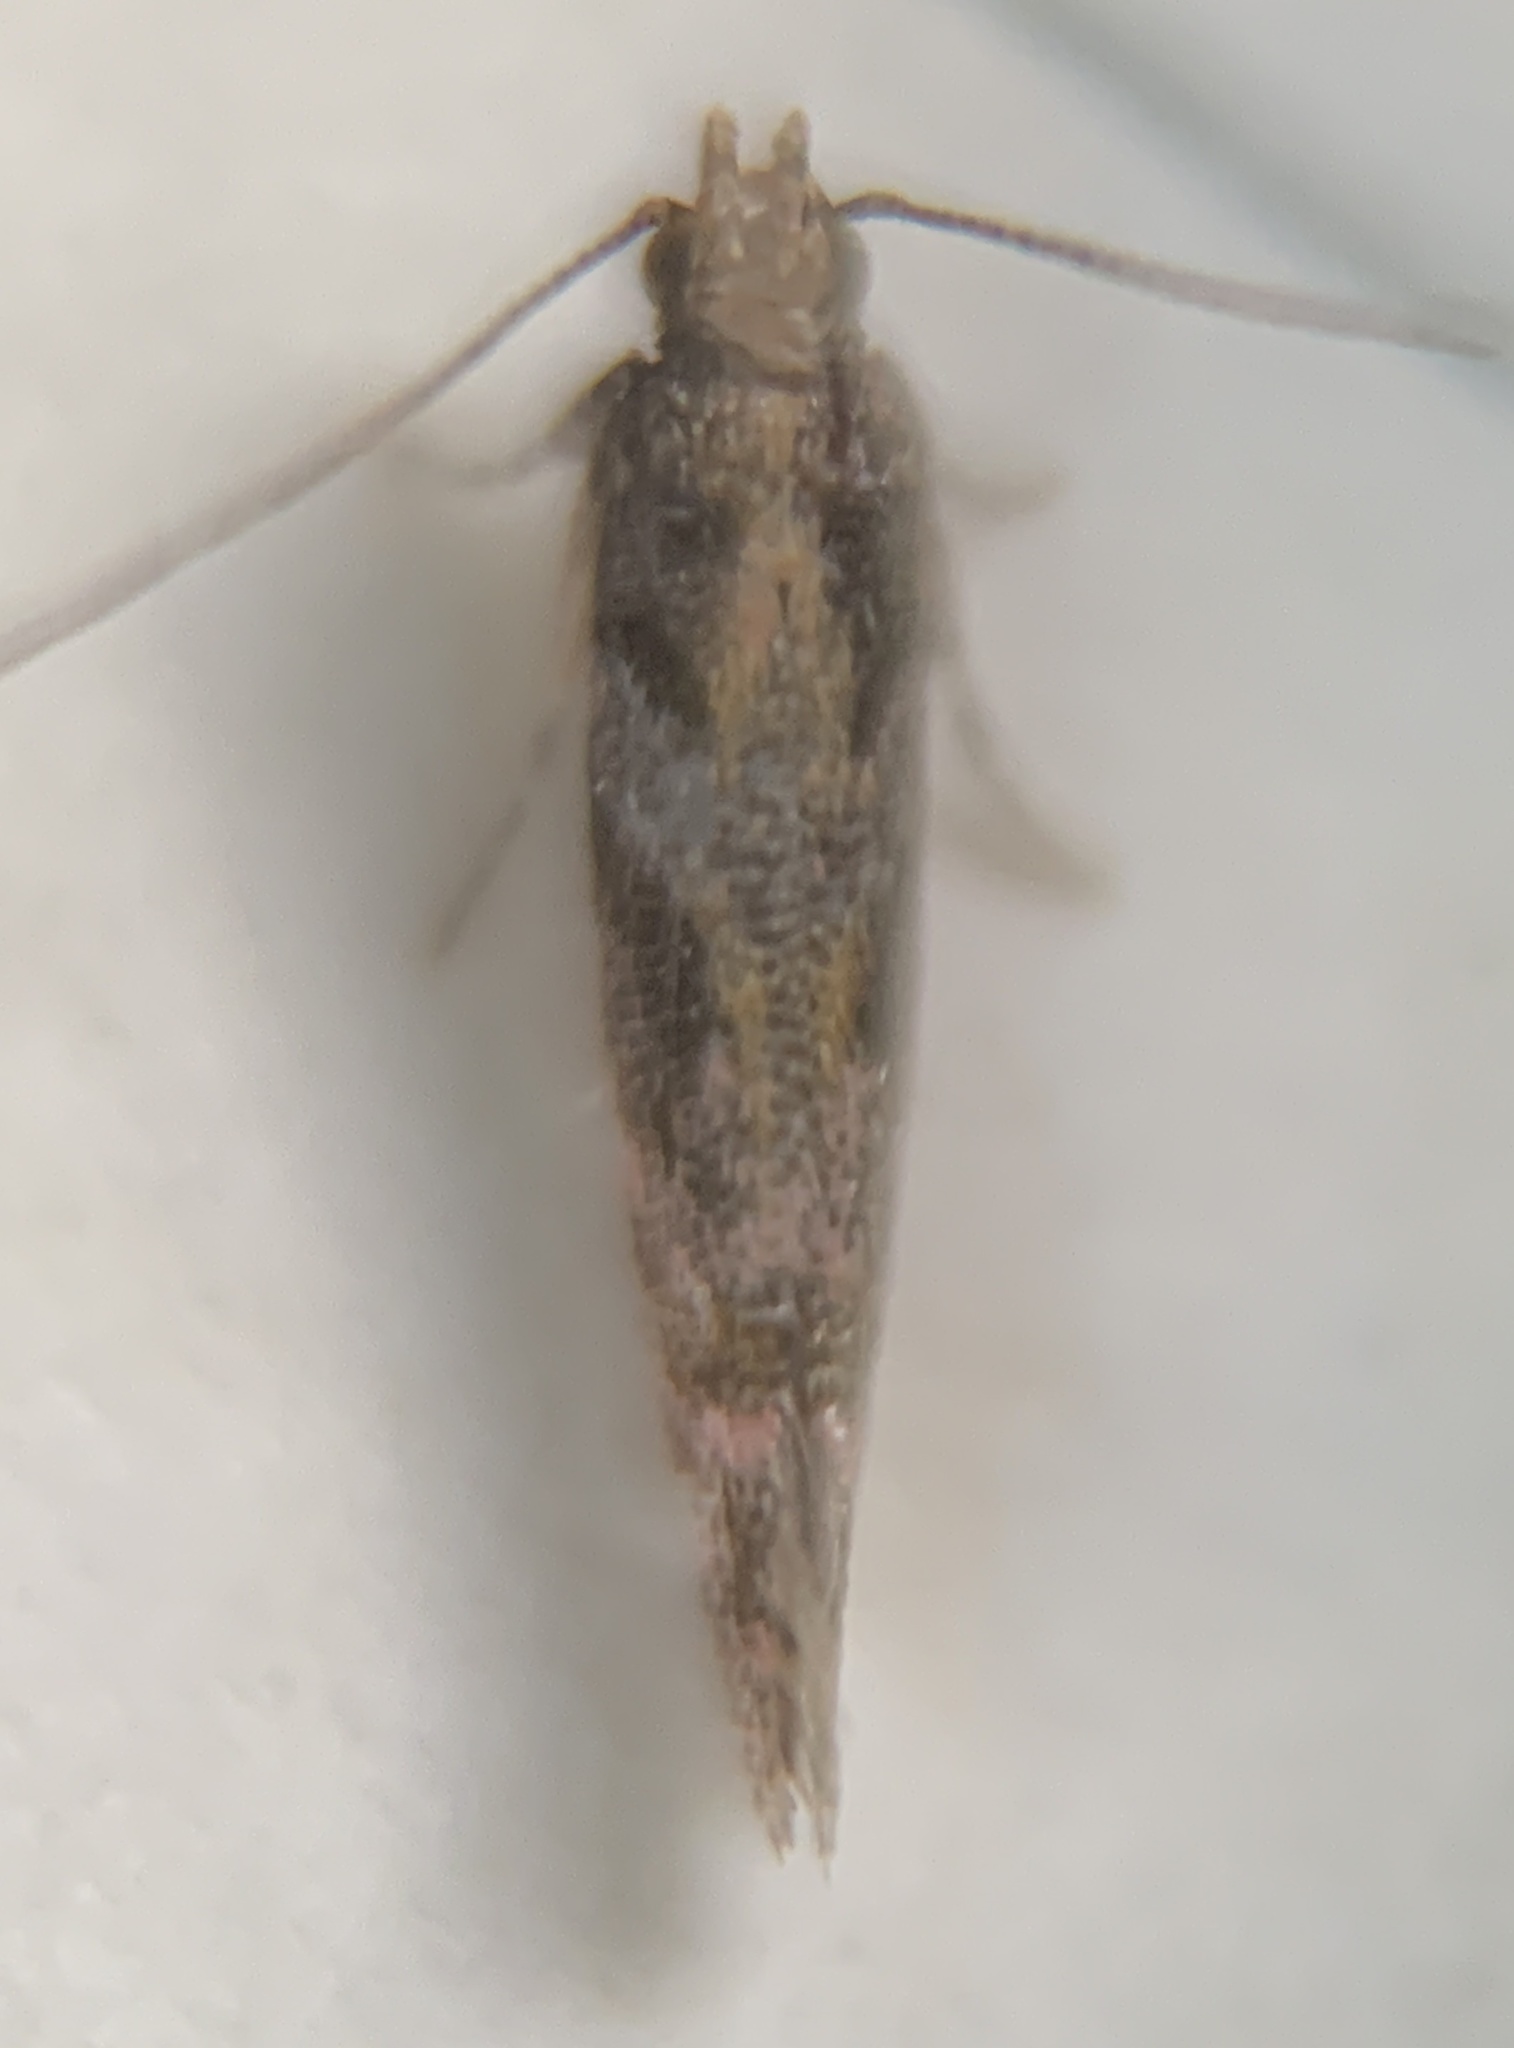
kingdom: Animalia
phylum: Arthropoda
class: Insecta
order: Lepidoptera
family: Gelechiidae
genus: Aristotelia
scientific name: Aristotelia rubidella
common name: Ruby aristotelia moth
